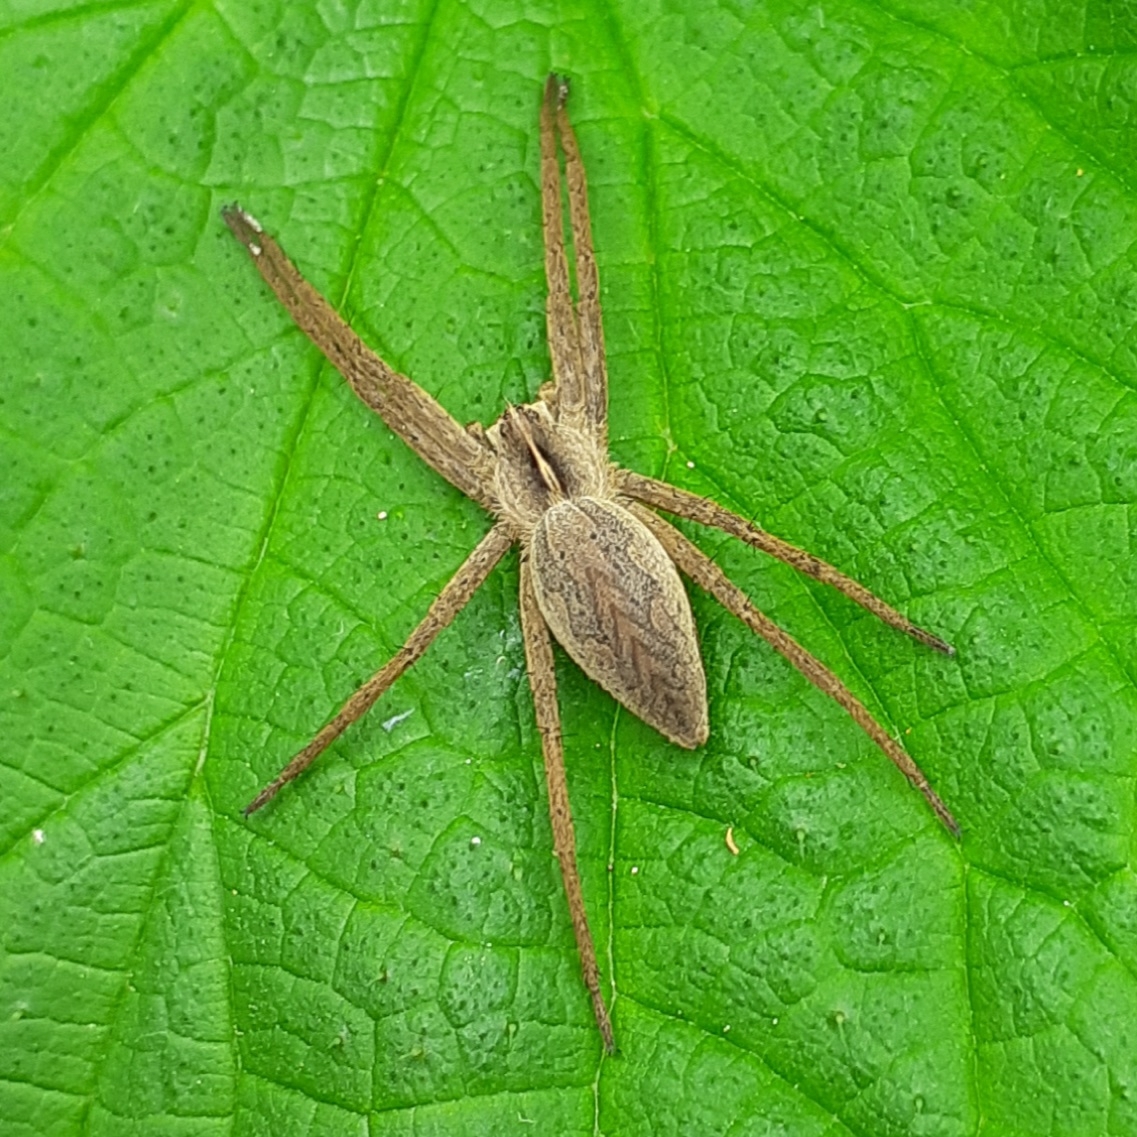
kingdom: Animalia
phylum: Arthropoda
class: Arachnida
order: Araneae
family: Pisauridae
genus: Pisaura
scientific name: Pisaura mirabilis
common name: Tent spider
